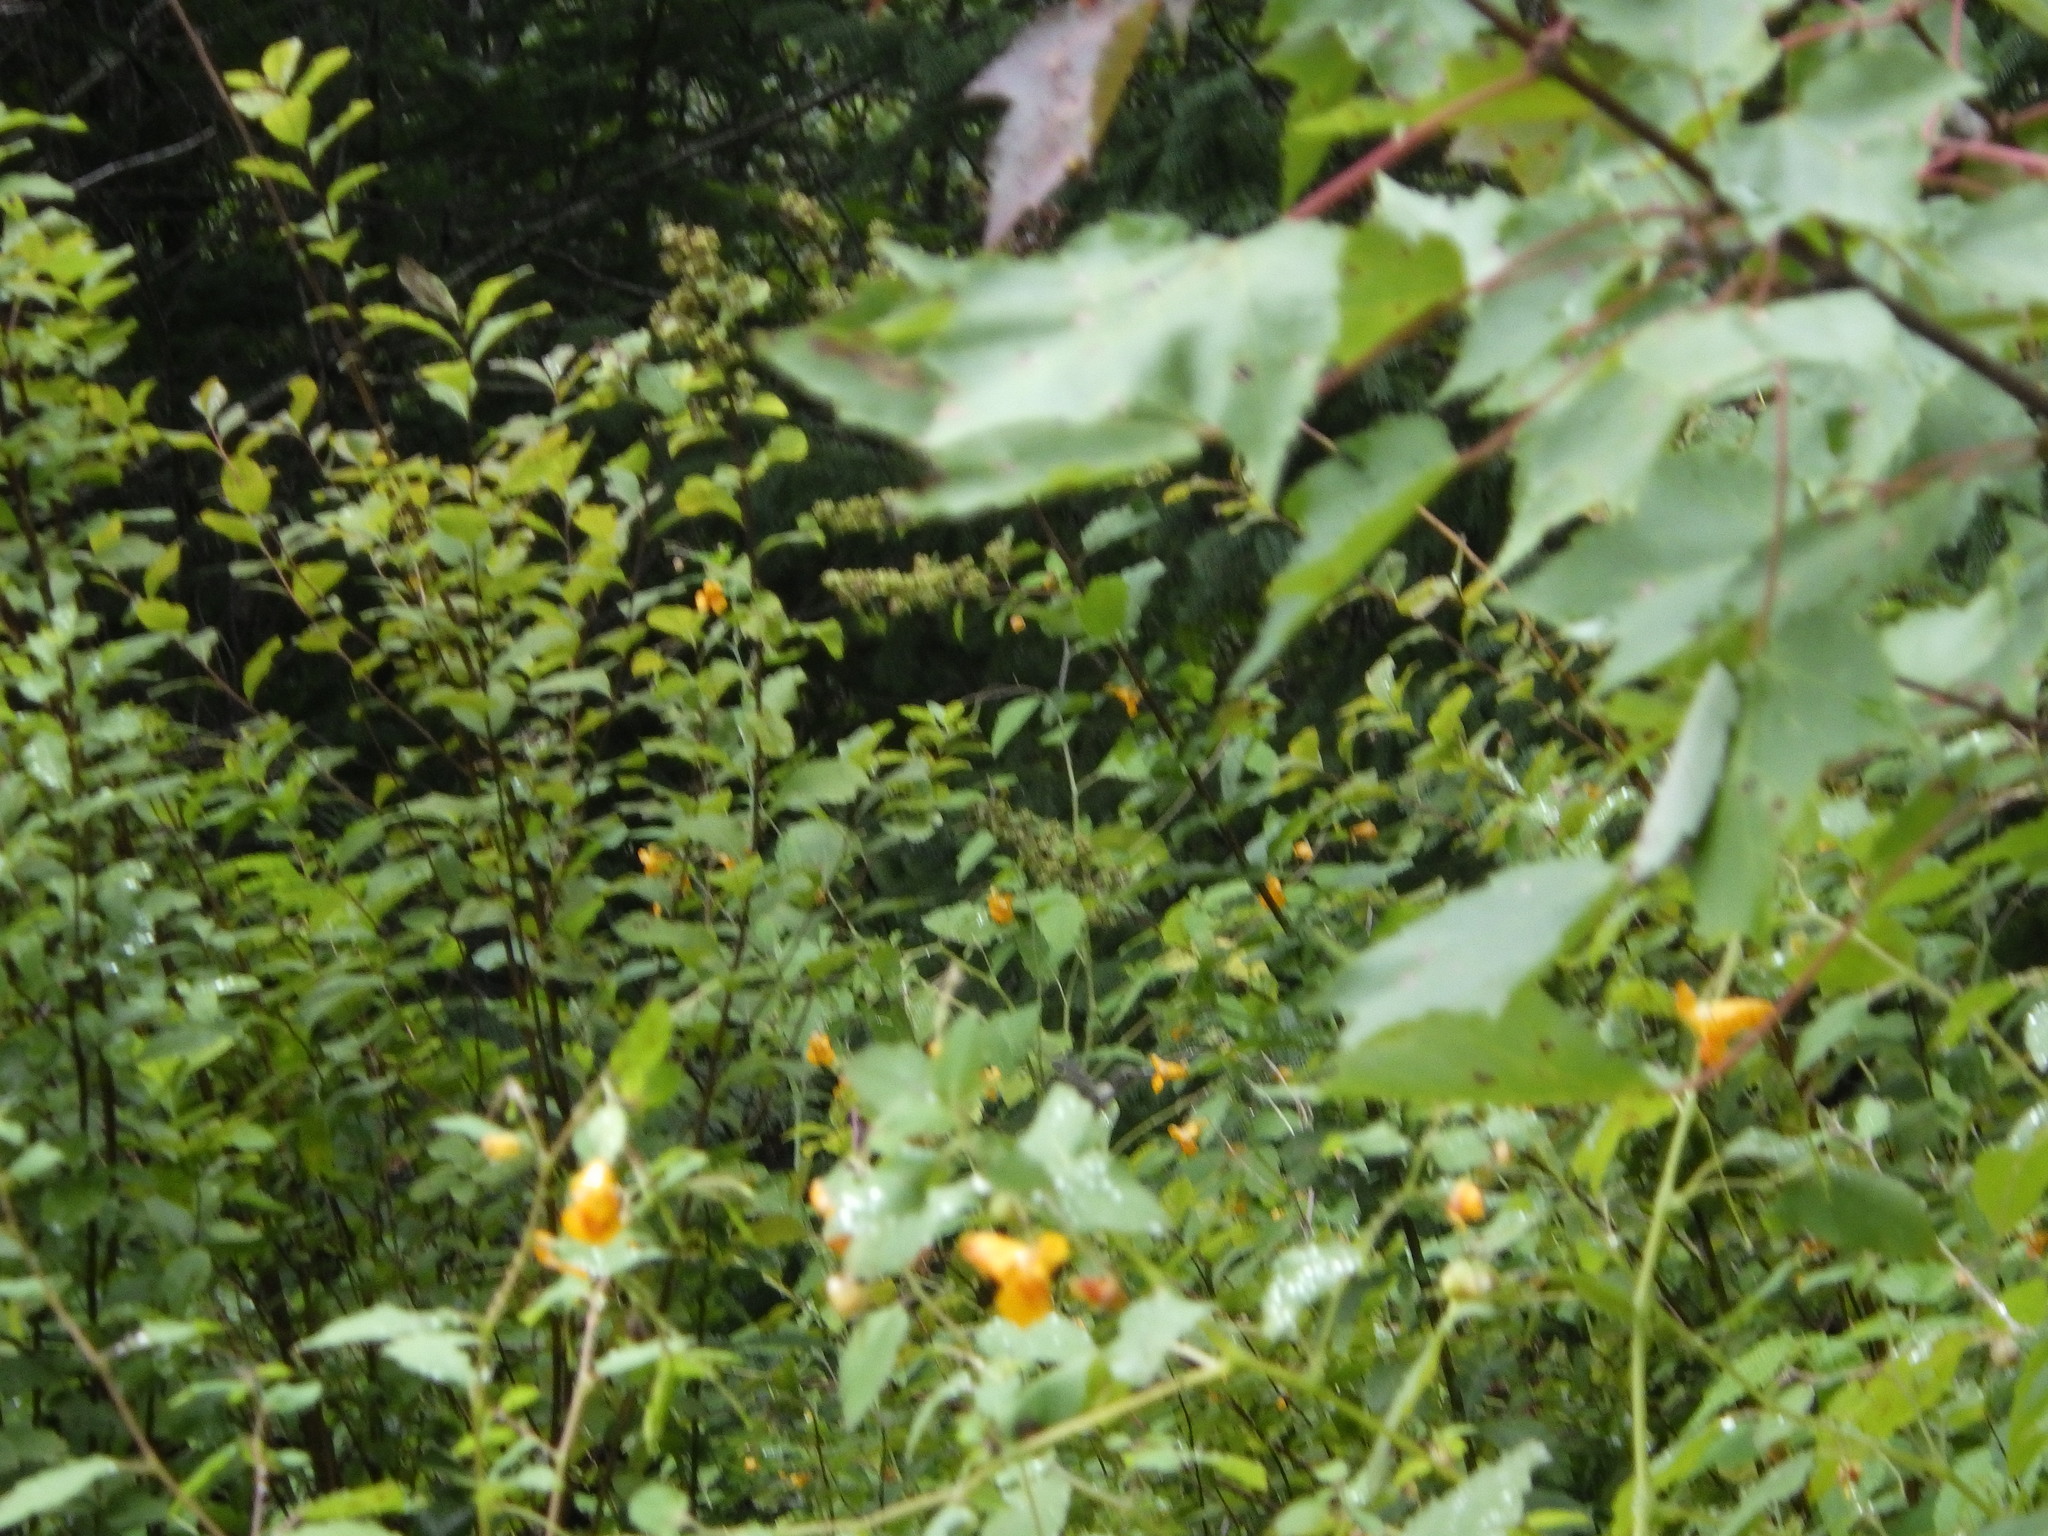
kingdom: Plantae
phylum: Tracheophyta
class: Magnoliopsida
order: Ericales
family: Balsaminaceae
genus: Impatiens
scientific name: Impatiens capensis
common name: Orange balsam
